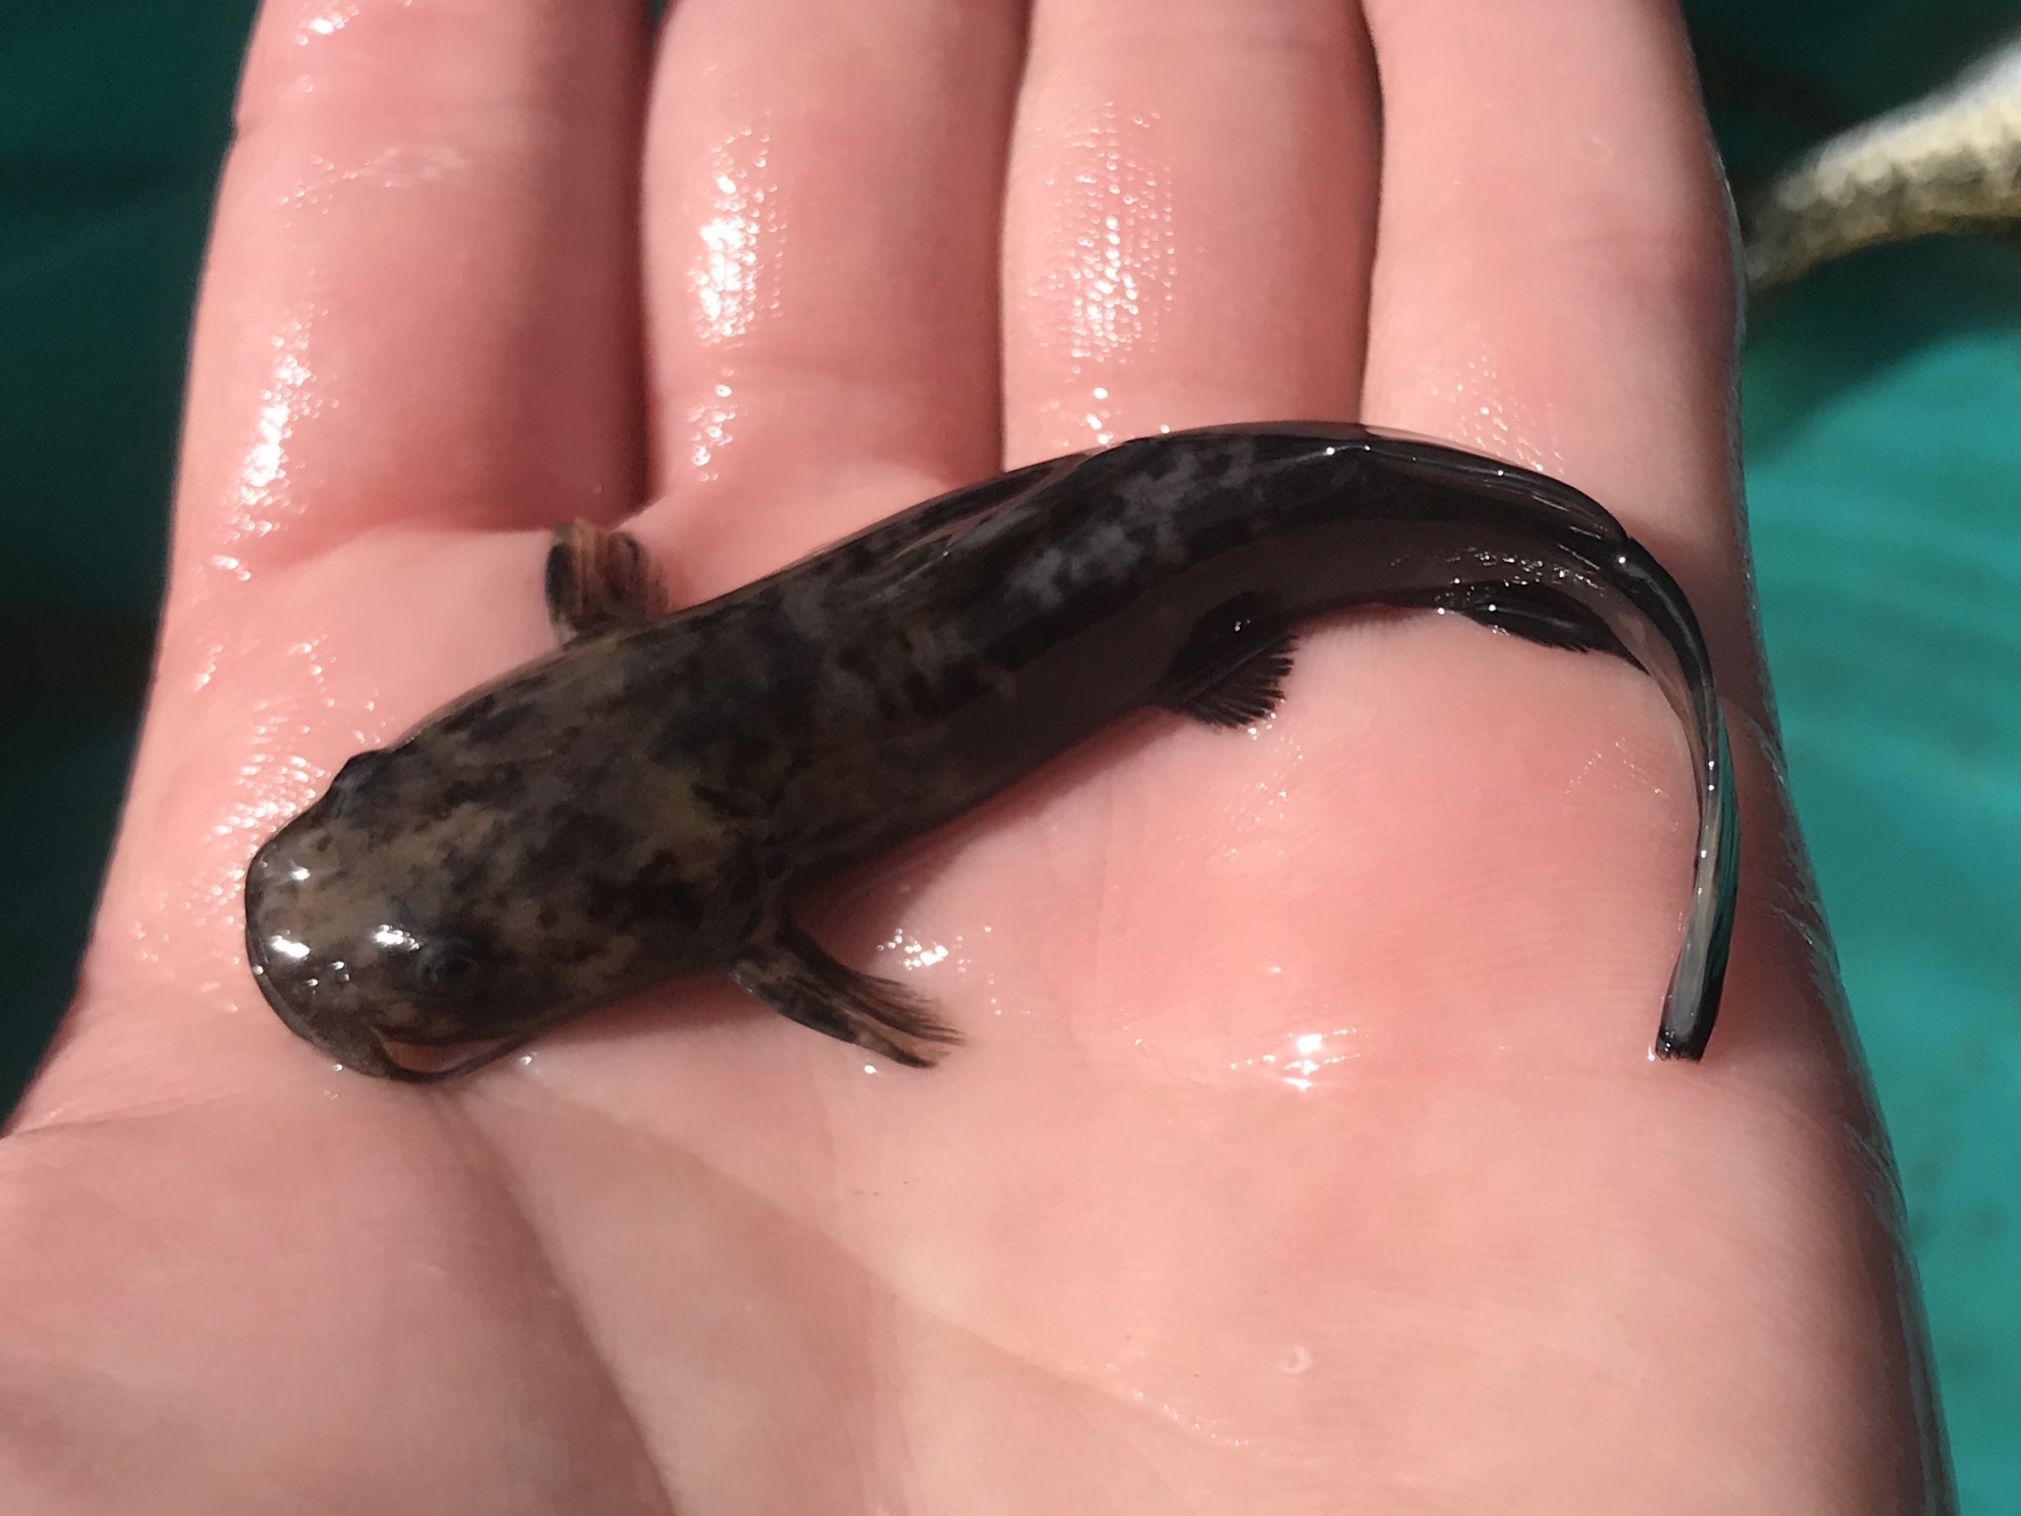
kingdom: Animalia
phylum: Chordata
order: Siluriformes
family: Ictaluridae
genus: Pylodictis
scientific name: Pylodictis olivaris
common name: Flathead catfish
